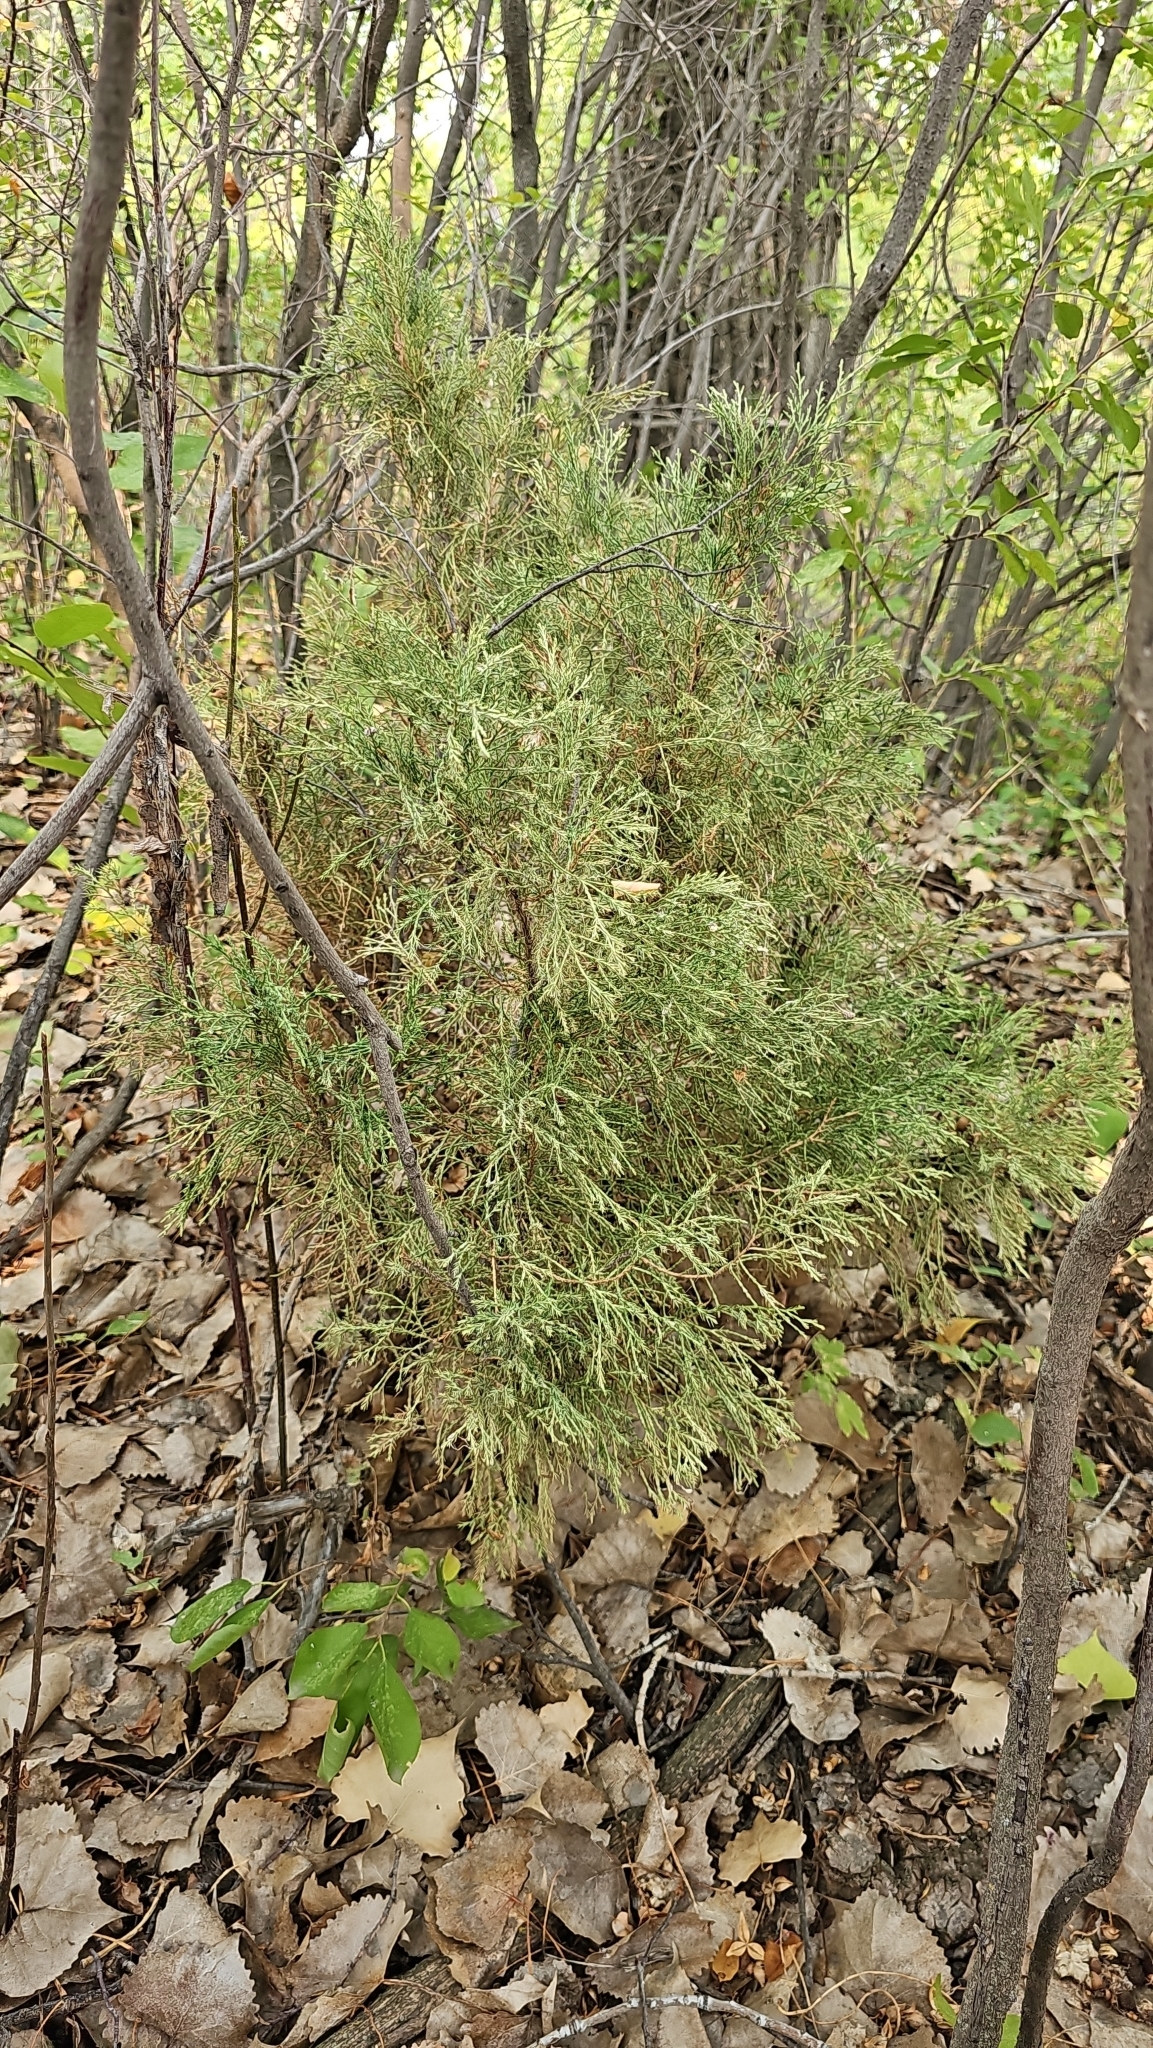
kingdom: Plantae
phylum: Tracheophyta
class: Pinopsida
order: Pinales
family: Cupressaceae
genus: Juniperus
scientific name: Juniperus scopulorum
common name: Rocky mountain juniper
